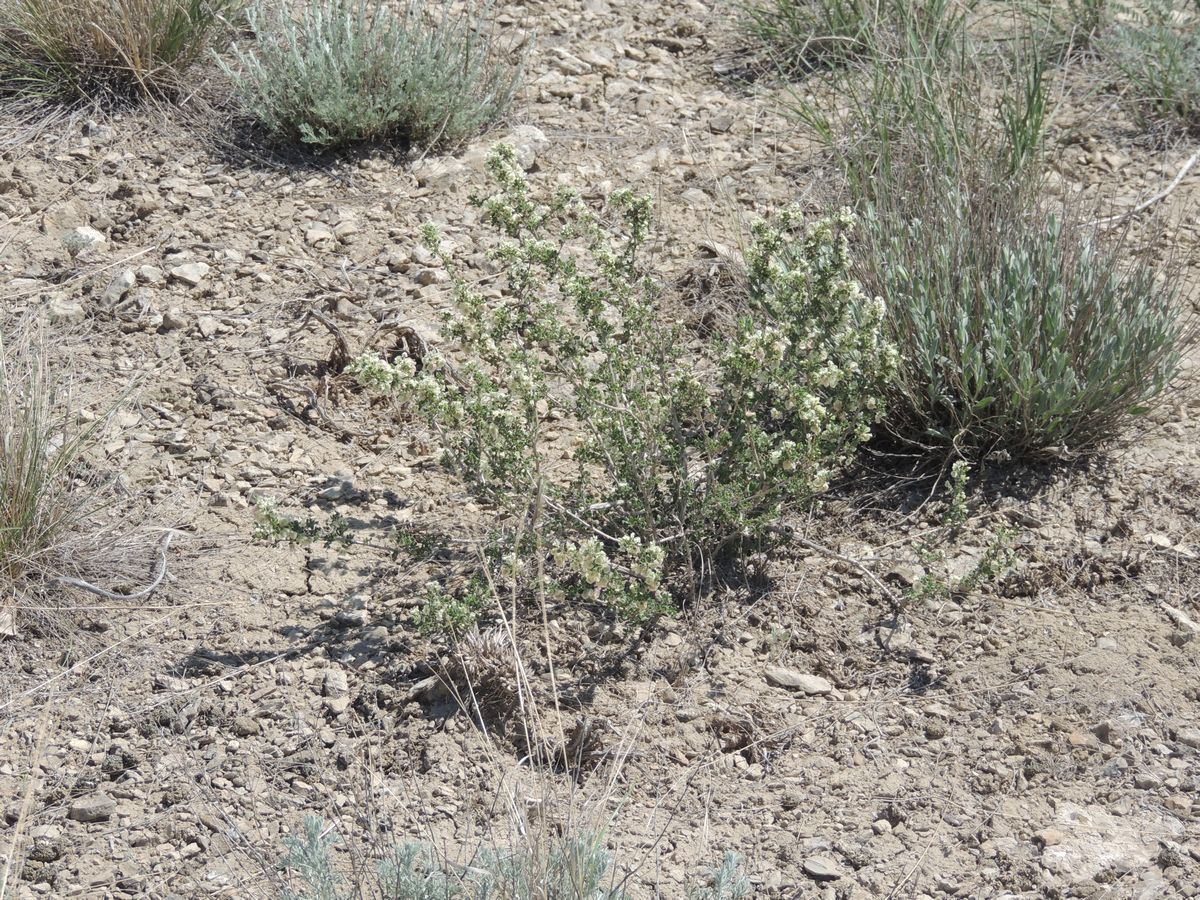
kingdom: Plantae
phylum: Tracheophyta
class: Magnoliopsida
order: Caryophyllales
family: Polygonaceae
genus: Atraphaxis
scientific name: Atraphaxis replicata
